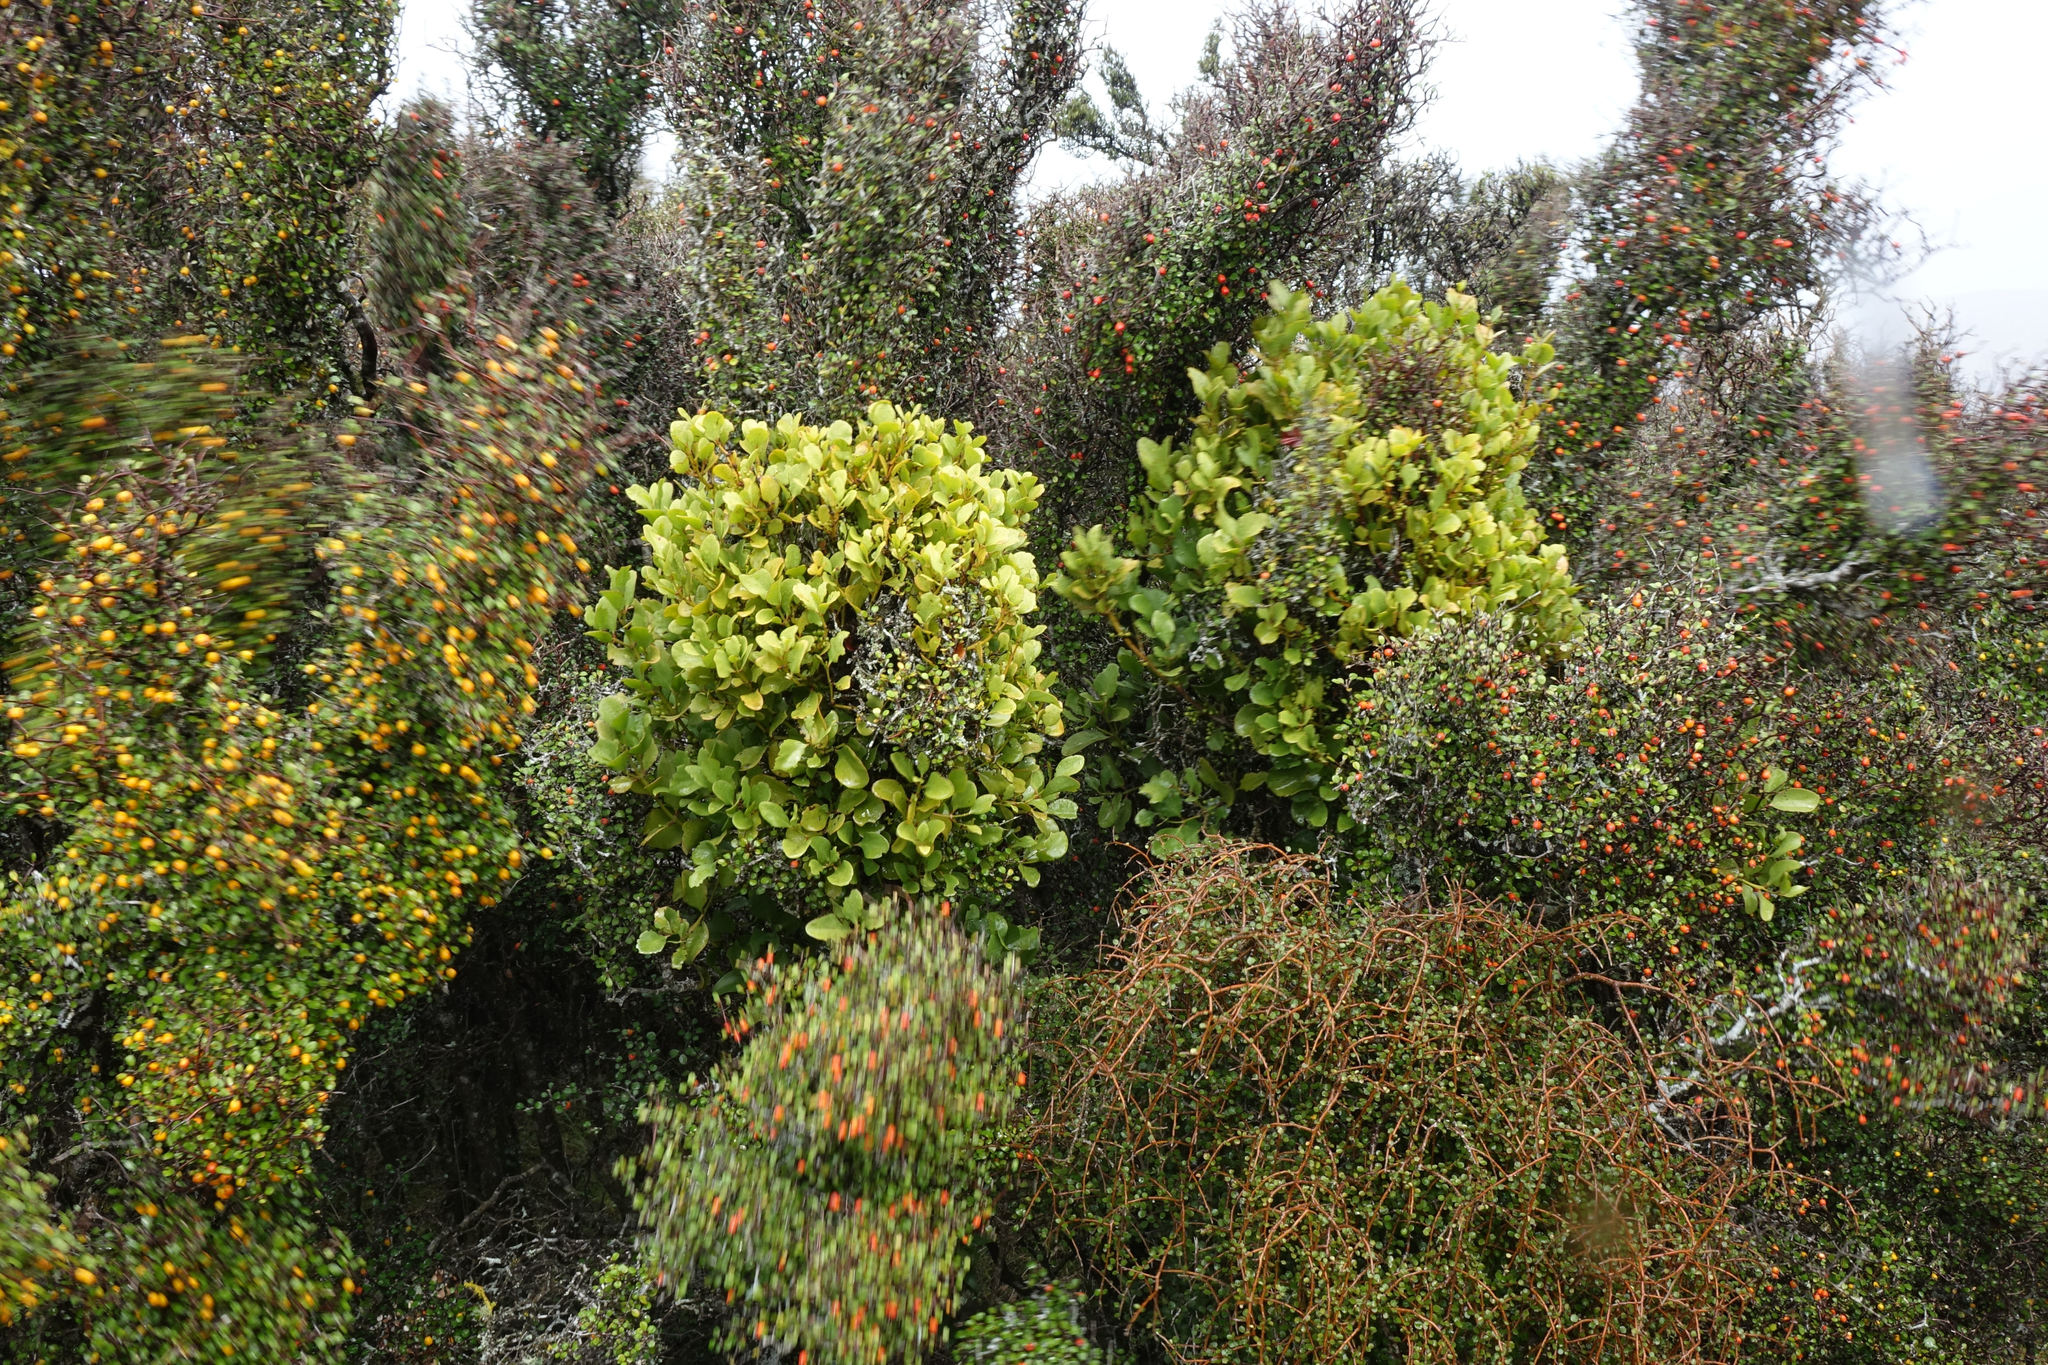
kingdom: Plantae
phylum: Tracheophyta
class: Magnoliopsida
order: Santalales
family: Loranthaceae
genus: Ileostylus
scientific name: Ileostylus micranthus
